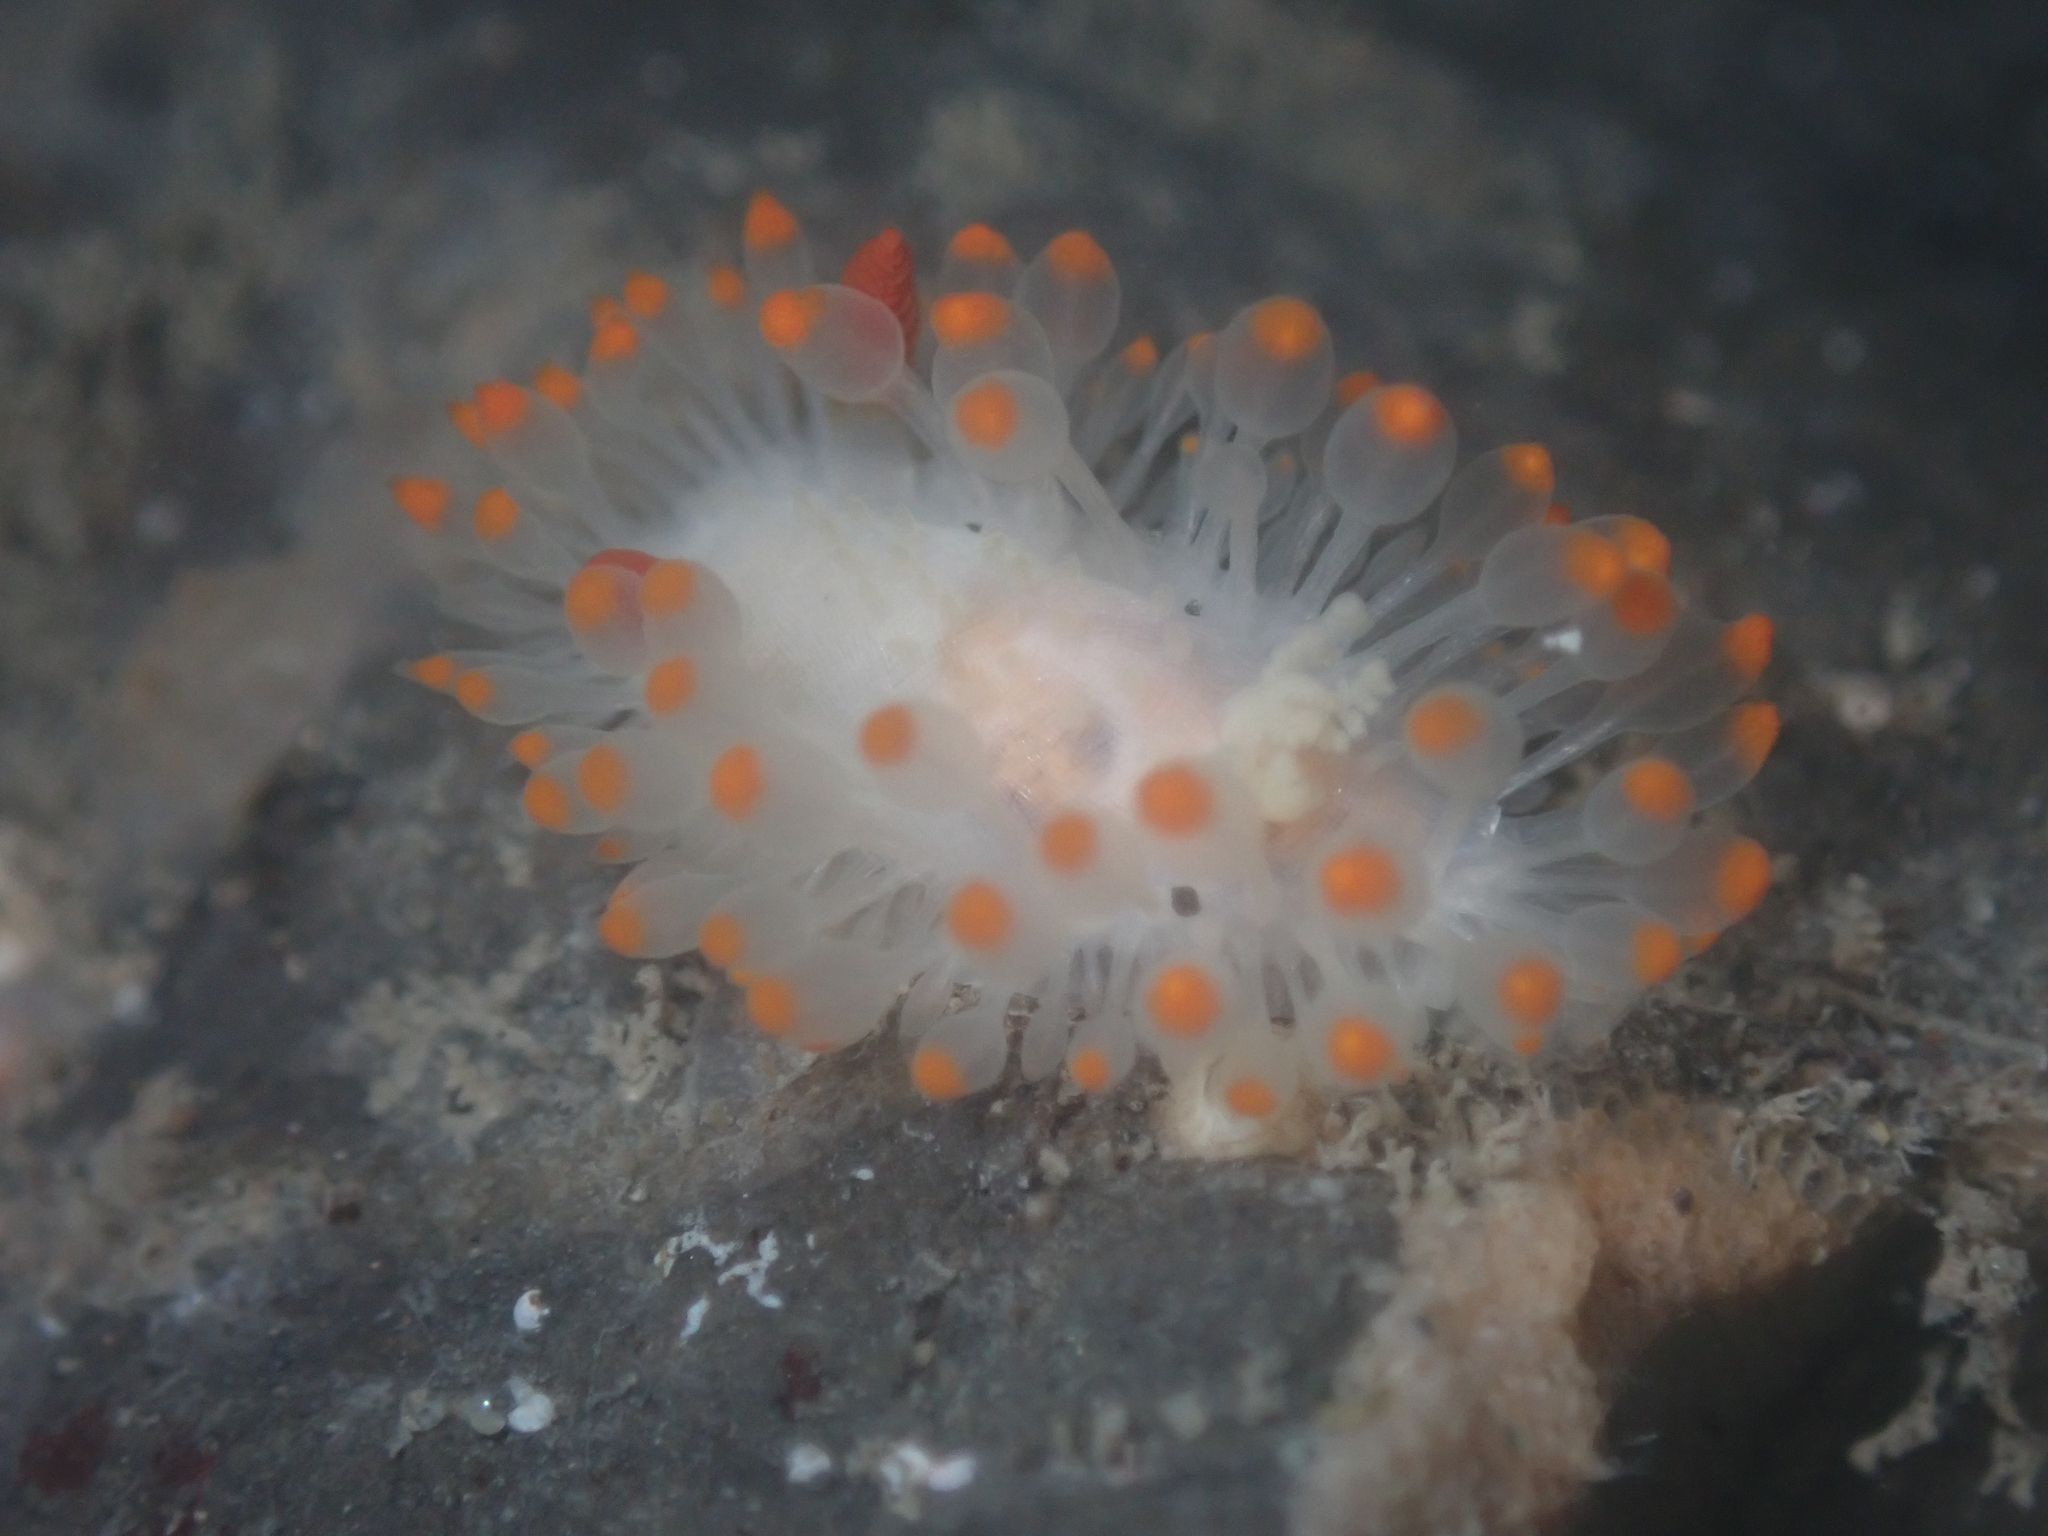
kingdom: Animalia
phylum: Mollusca
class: Gastropoda
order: Nudibranchia
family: Polyceridae
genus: Limacia
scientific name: Limacia cockerelli
